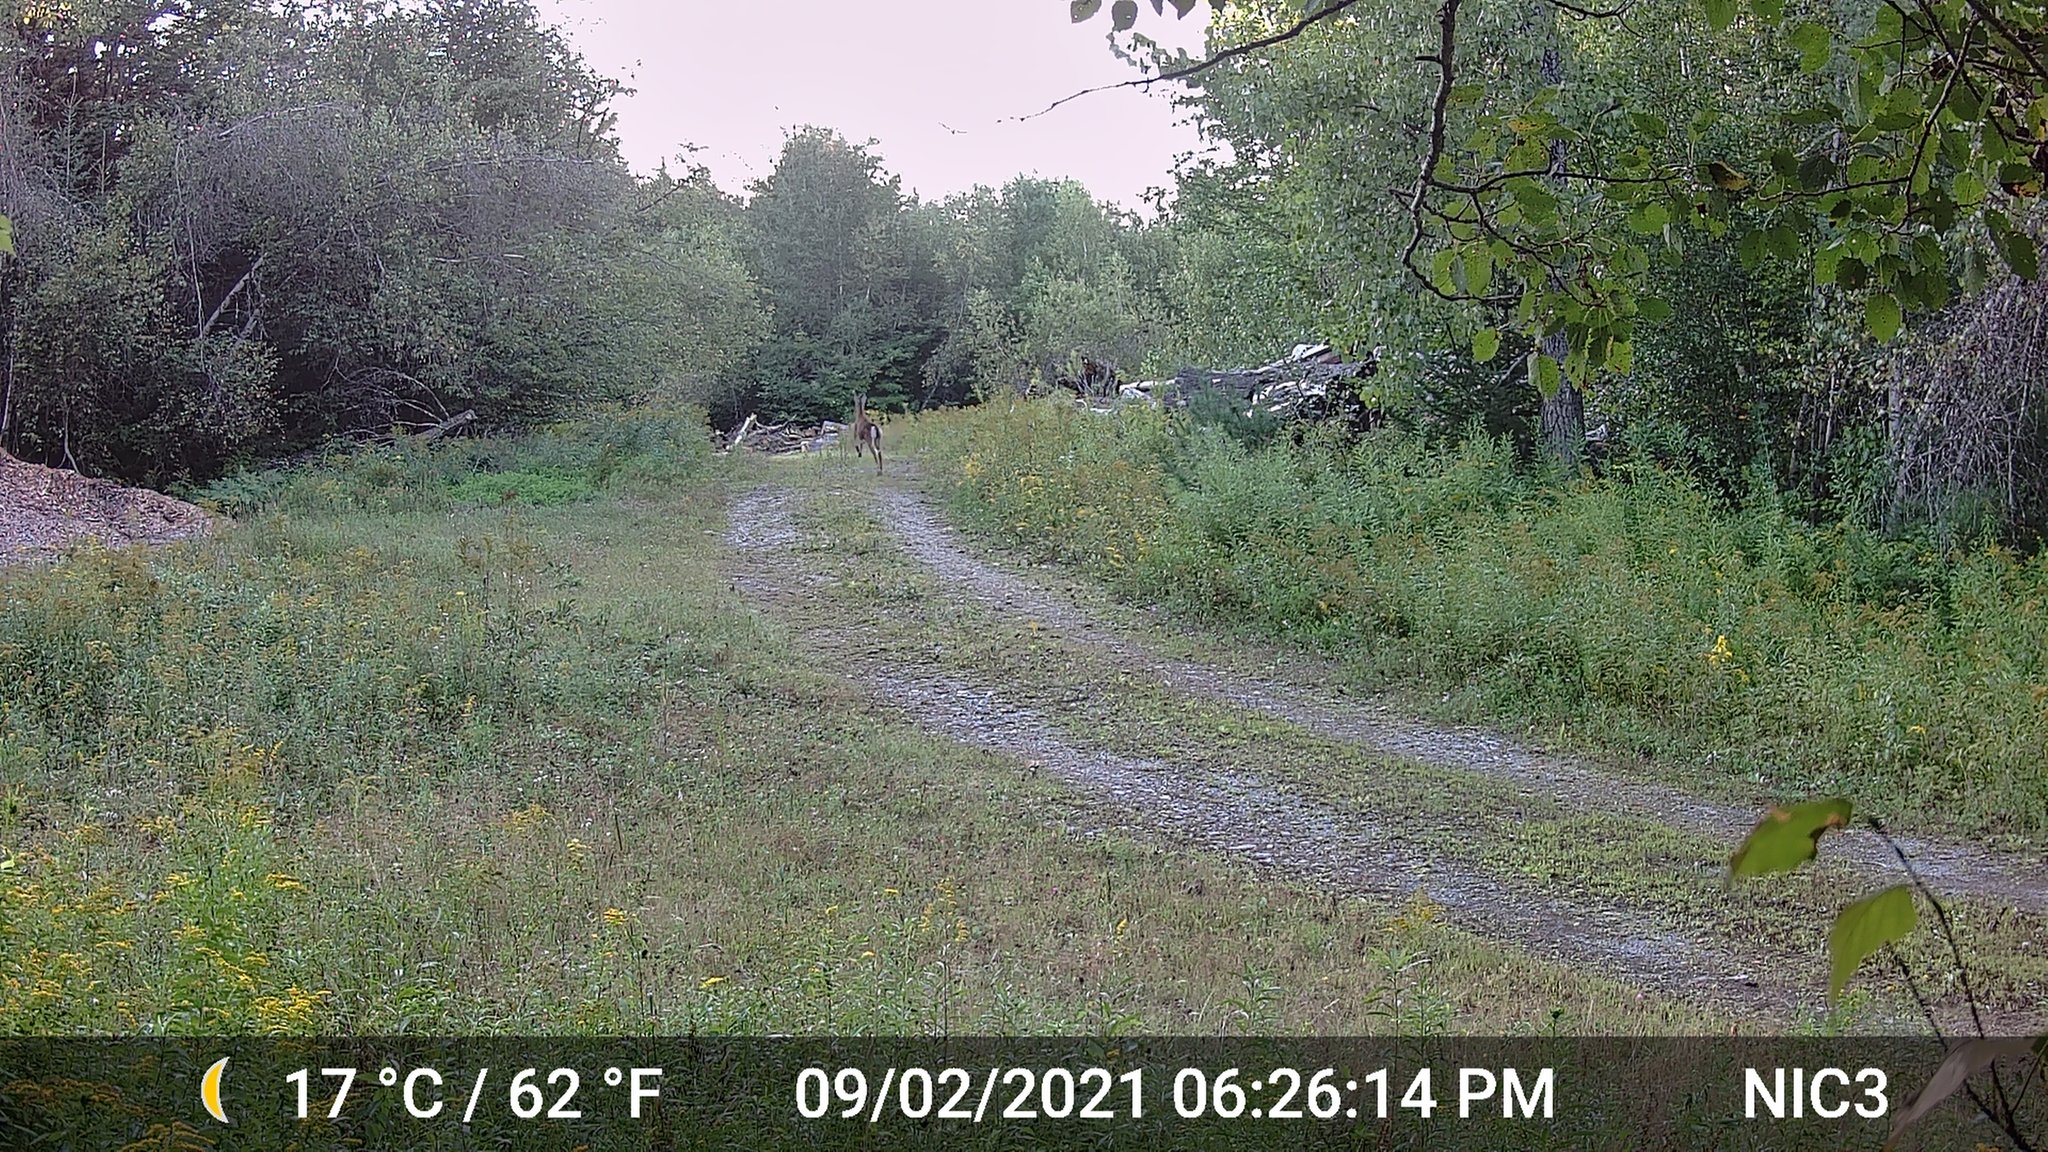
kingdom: Animalia
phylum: Chordata
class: Mammalia
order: Artiodactyla
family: Cervidae
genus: Odocoileus
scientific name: Odocoileus virginianus
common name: White-tailed deer
